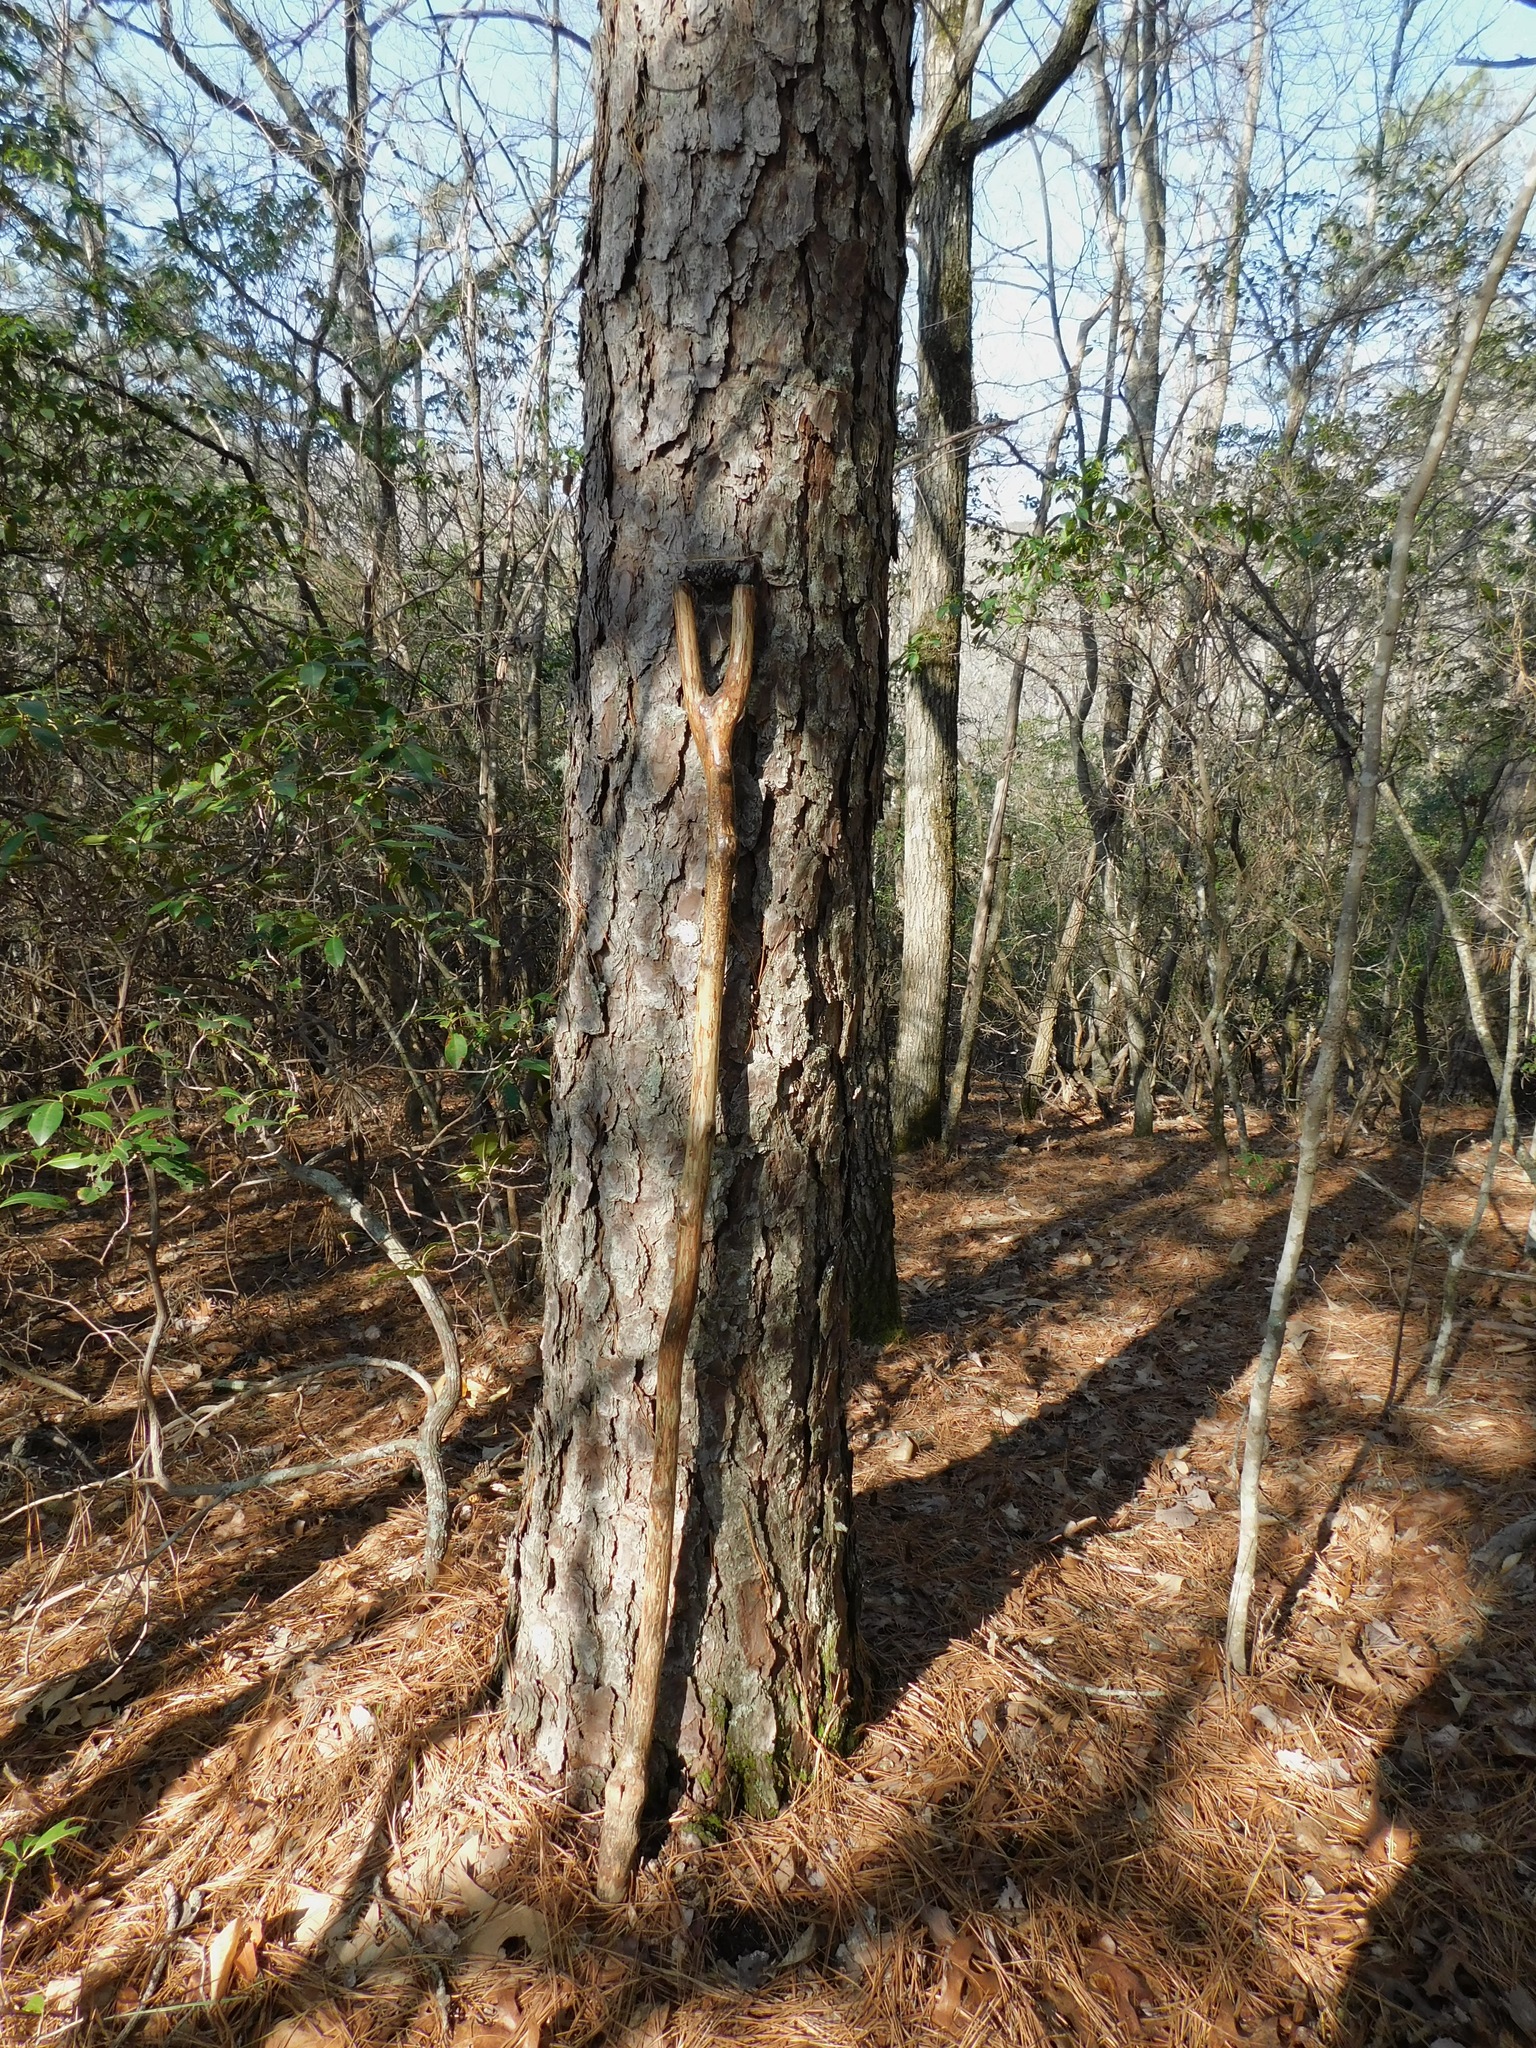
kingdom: Plantae
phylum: Tracheophyta
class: Pinopsida
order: Pinales
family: Pinaceae
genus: Pinus
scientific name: Pinus rigida
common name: Pitch pine
